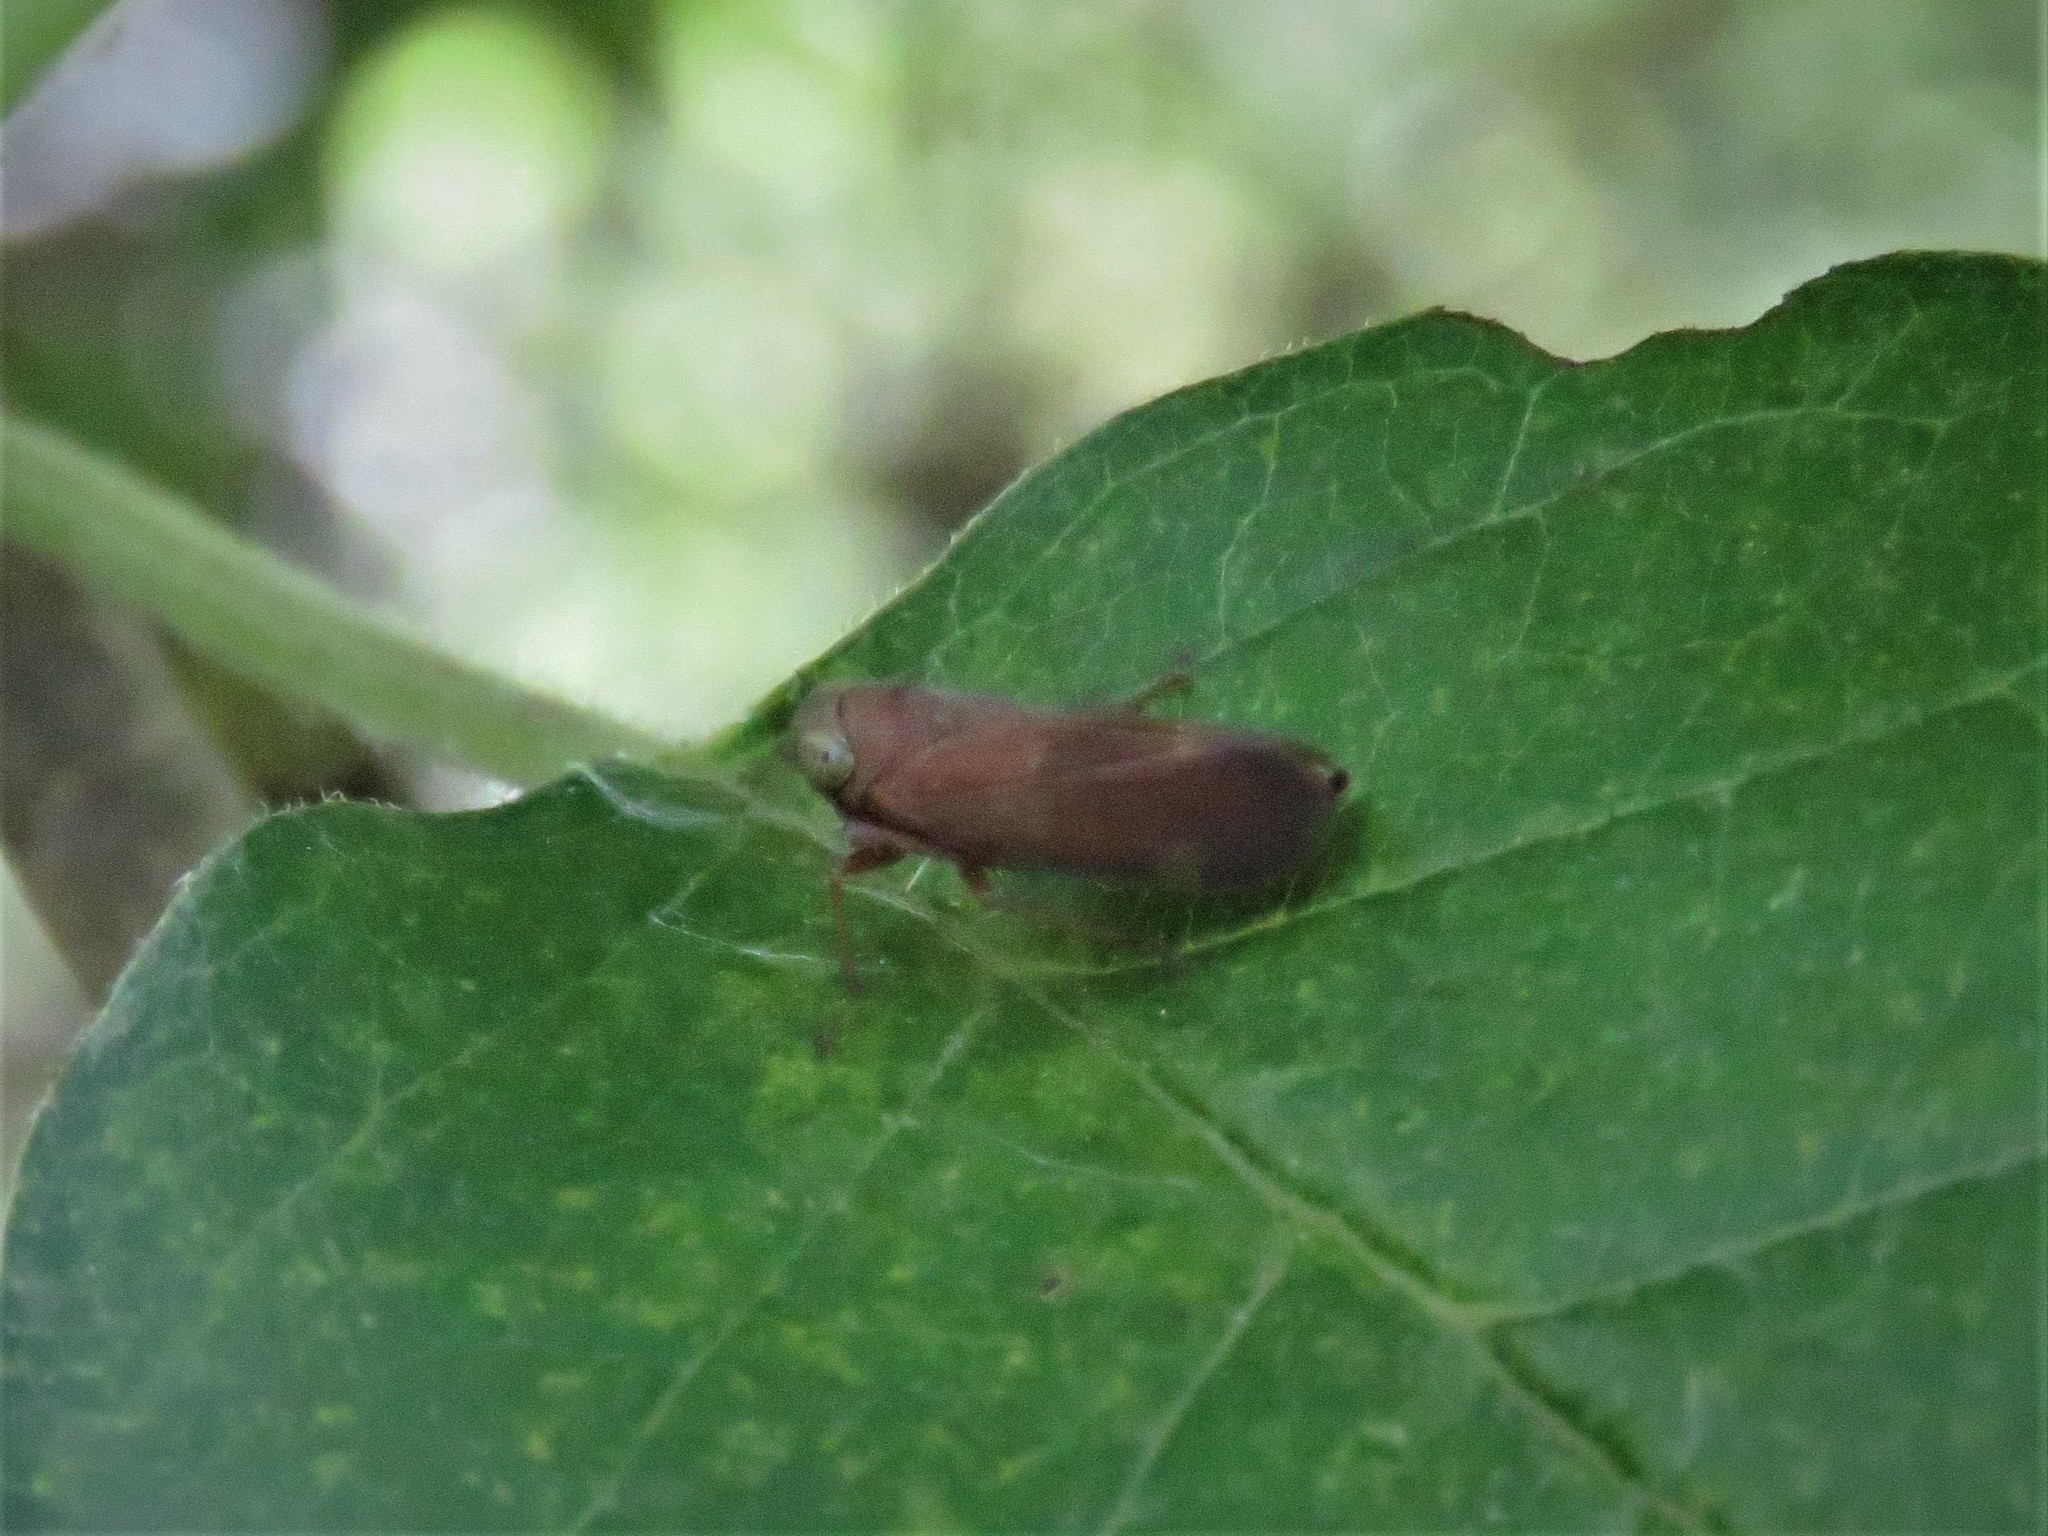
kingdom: Animalia
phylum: Arthropoda
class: Insecta
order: Hemiptera
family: Cicadellidae
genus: Jikradia
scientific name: Jikradia olitoria
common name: Coppery leafhopper
